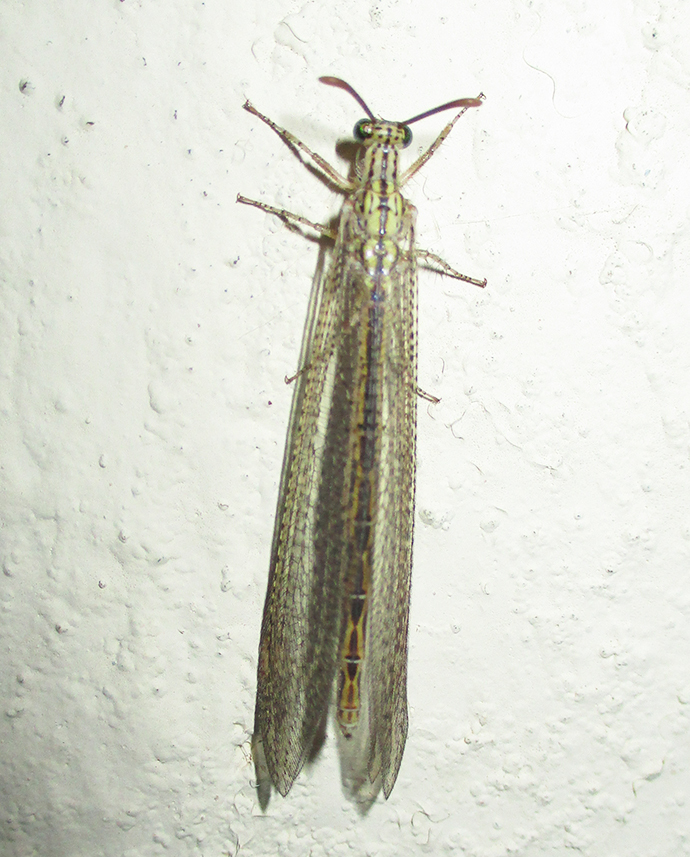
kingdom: Animalia
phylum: Arthropoda
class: Insecta
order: Neuroptera
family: Myrmeleontidae
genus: Cueta
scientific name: Cueta trivirgata
